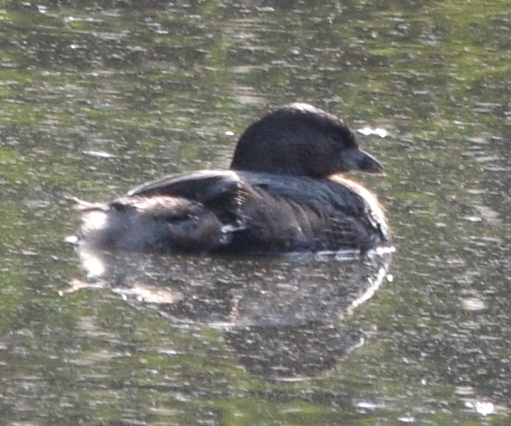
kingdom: Animalia
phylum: Chordata
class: Aves
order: Podicipediformes
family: Podicipedidae
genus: Podilymbus
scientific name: Podilymbus podiceps
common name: Pied-billed grebe
